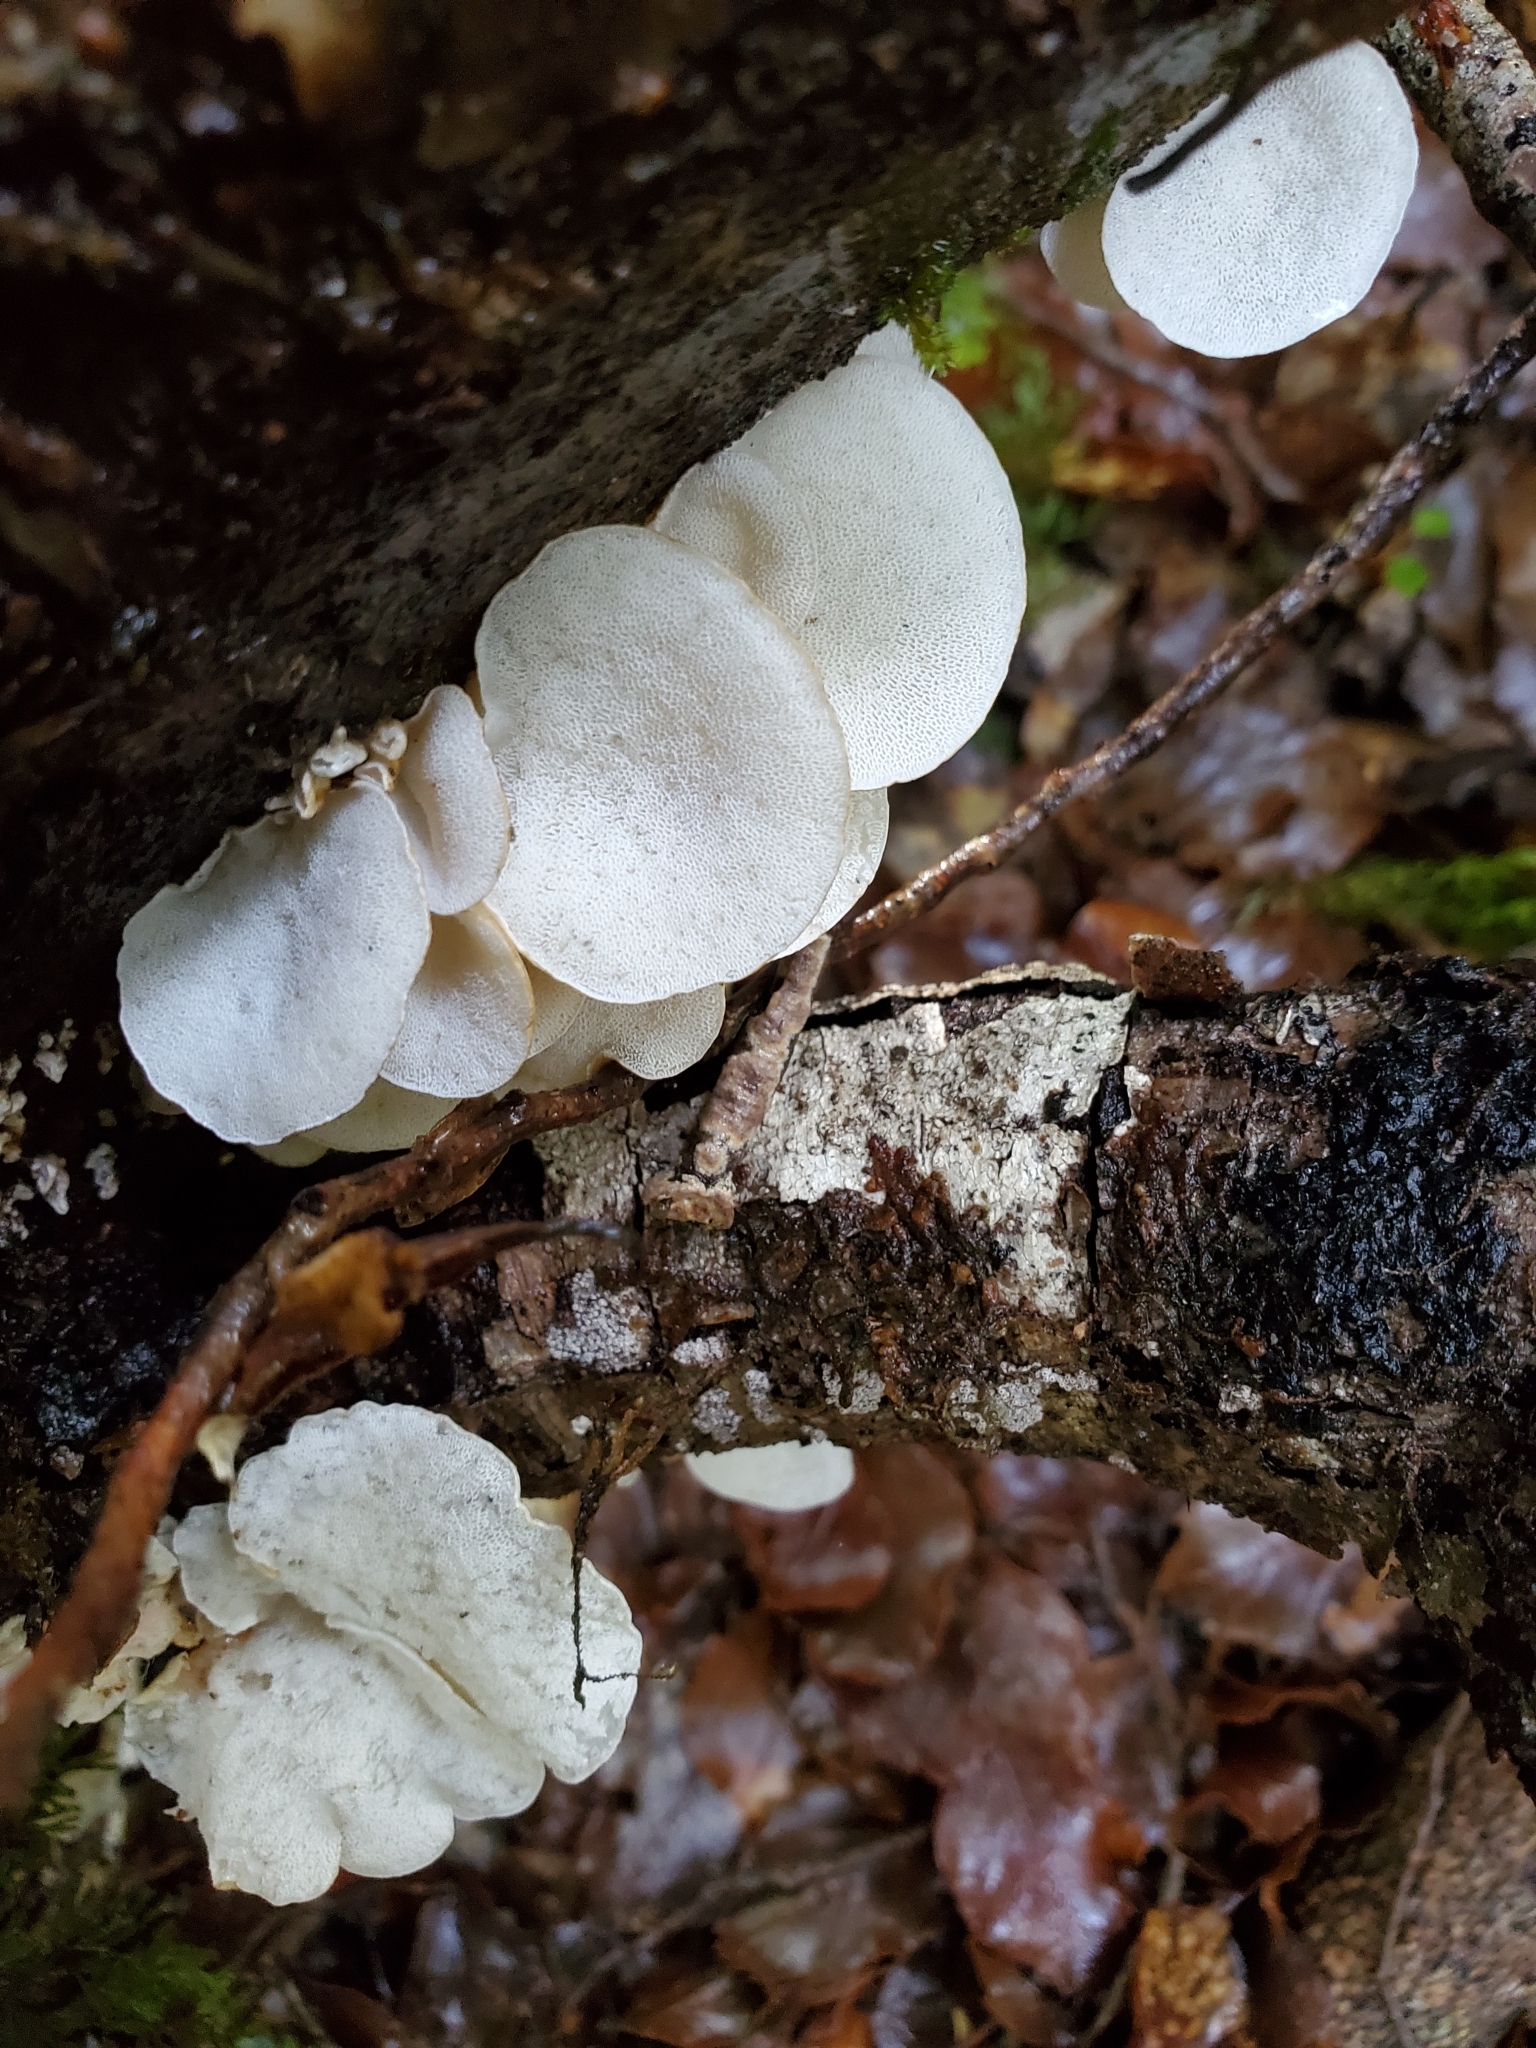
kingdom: Fungi
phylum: Basidiomycota
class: Agaricomycetes
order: Polyporales
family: Irpicaceae
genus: Gloeoporus
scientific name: Gloeoporus phlebophorus
